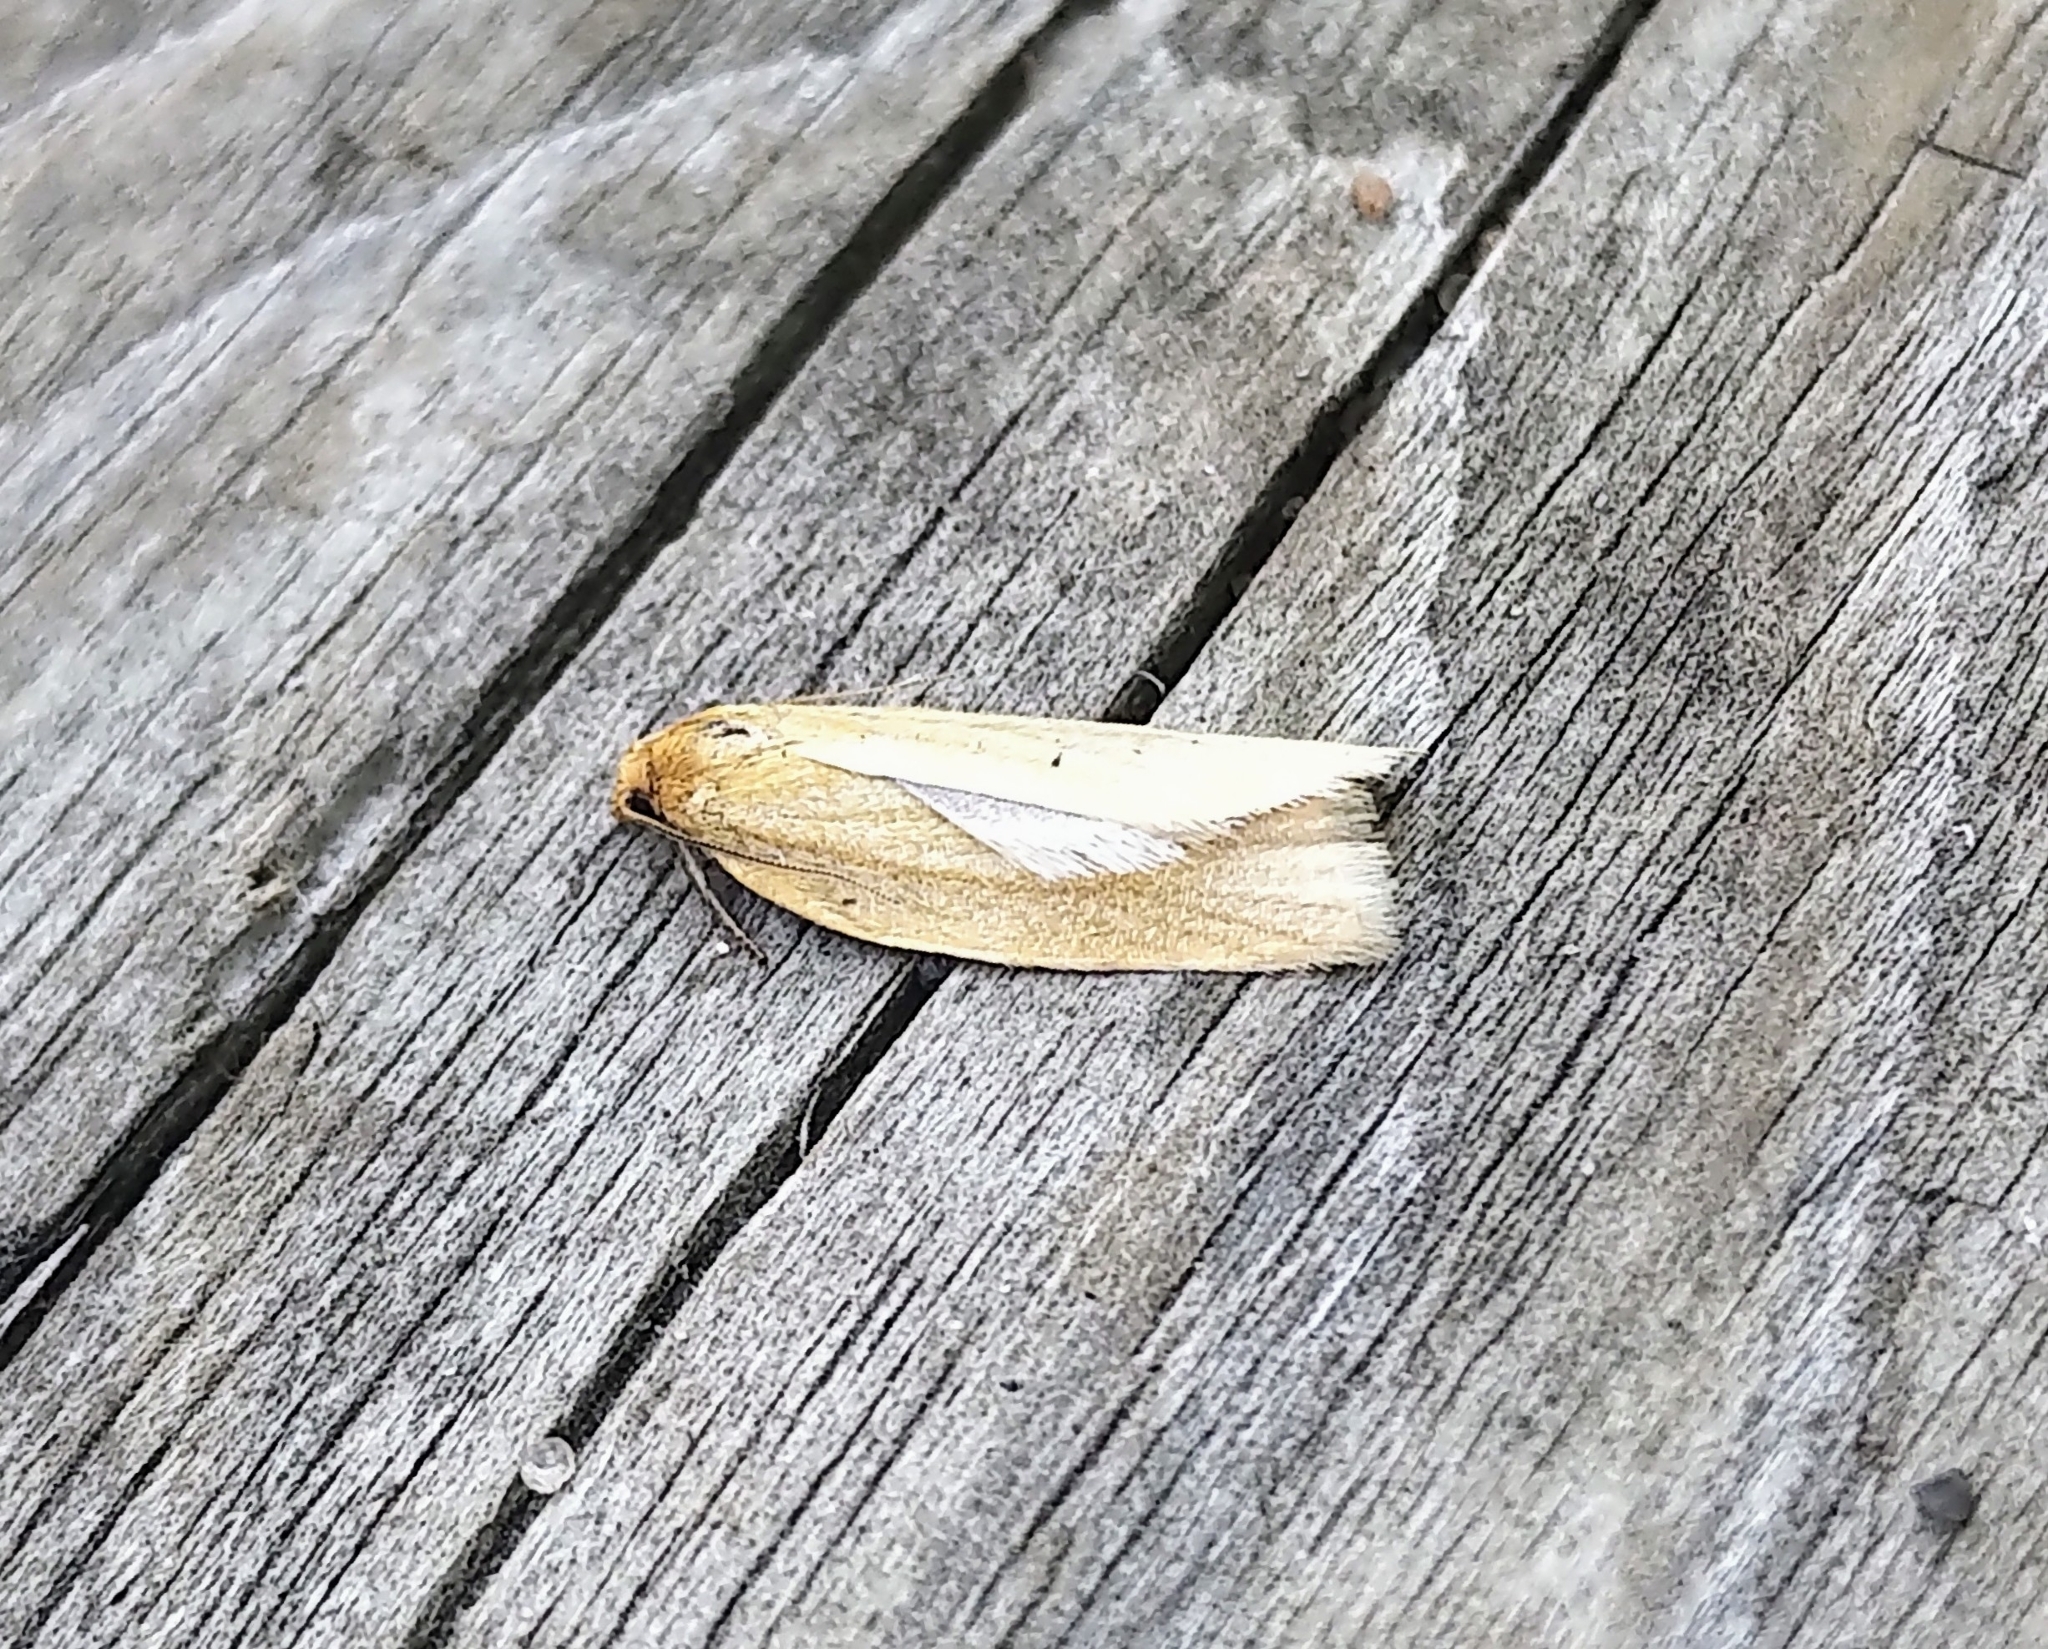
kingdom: Animalia
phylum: Arthropoda
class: Insecta
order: Lepidoptera
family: Tortricidae
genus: Clepsis
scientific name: Clepsis clemensiana
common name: Clemens' clepsis moth
